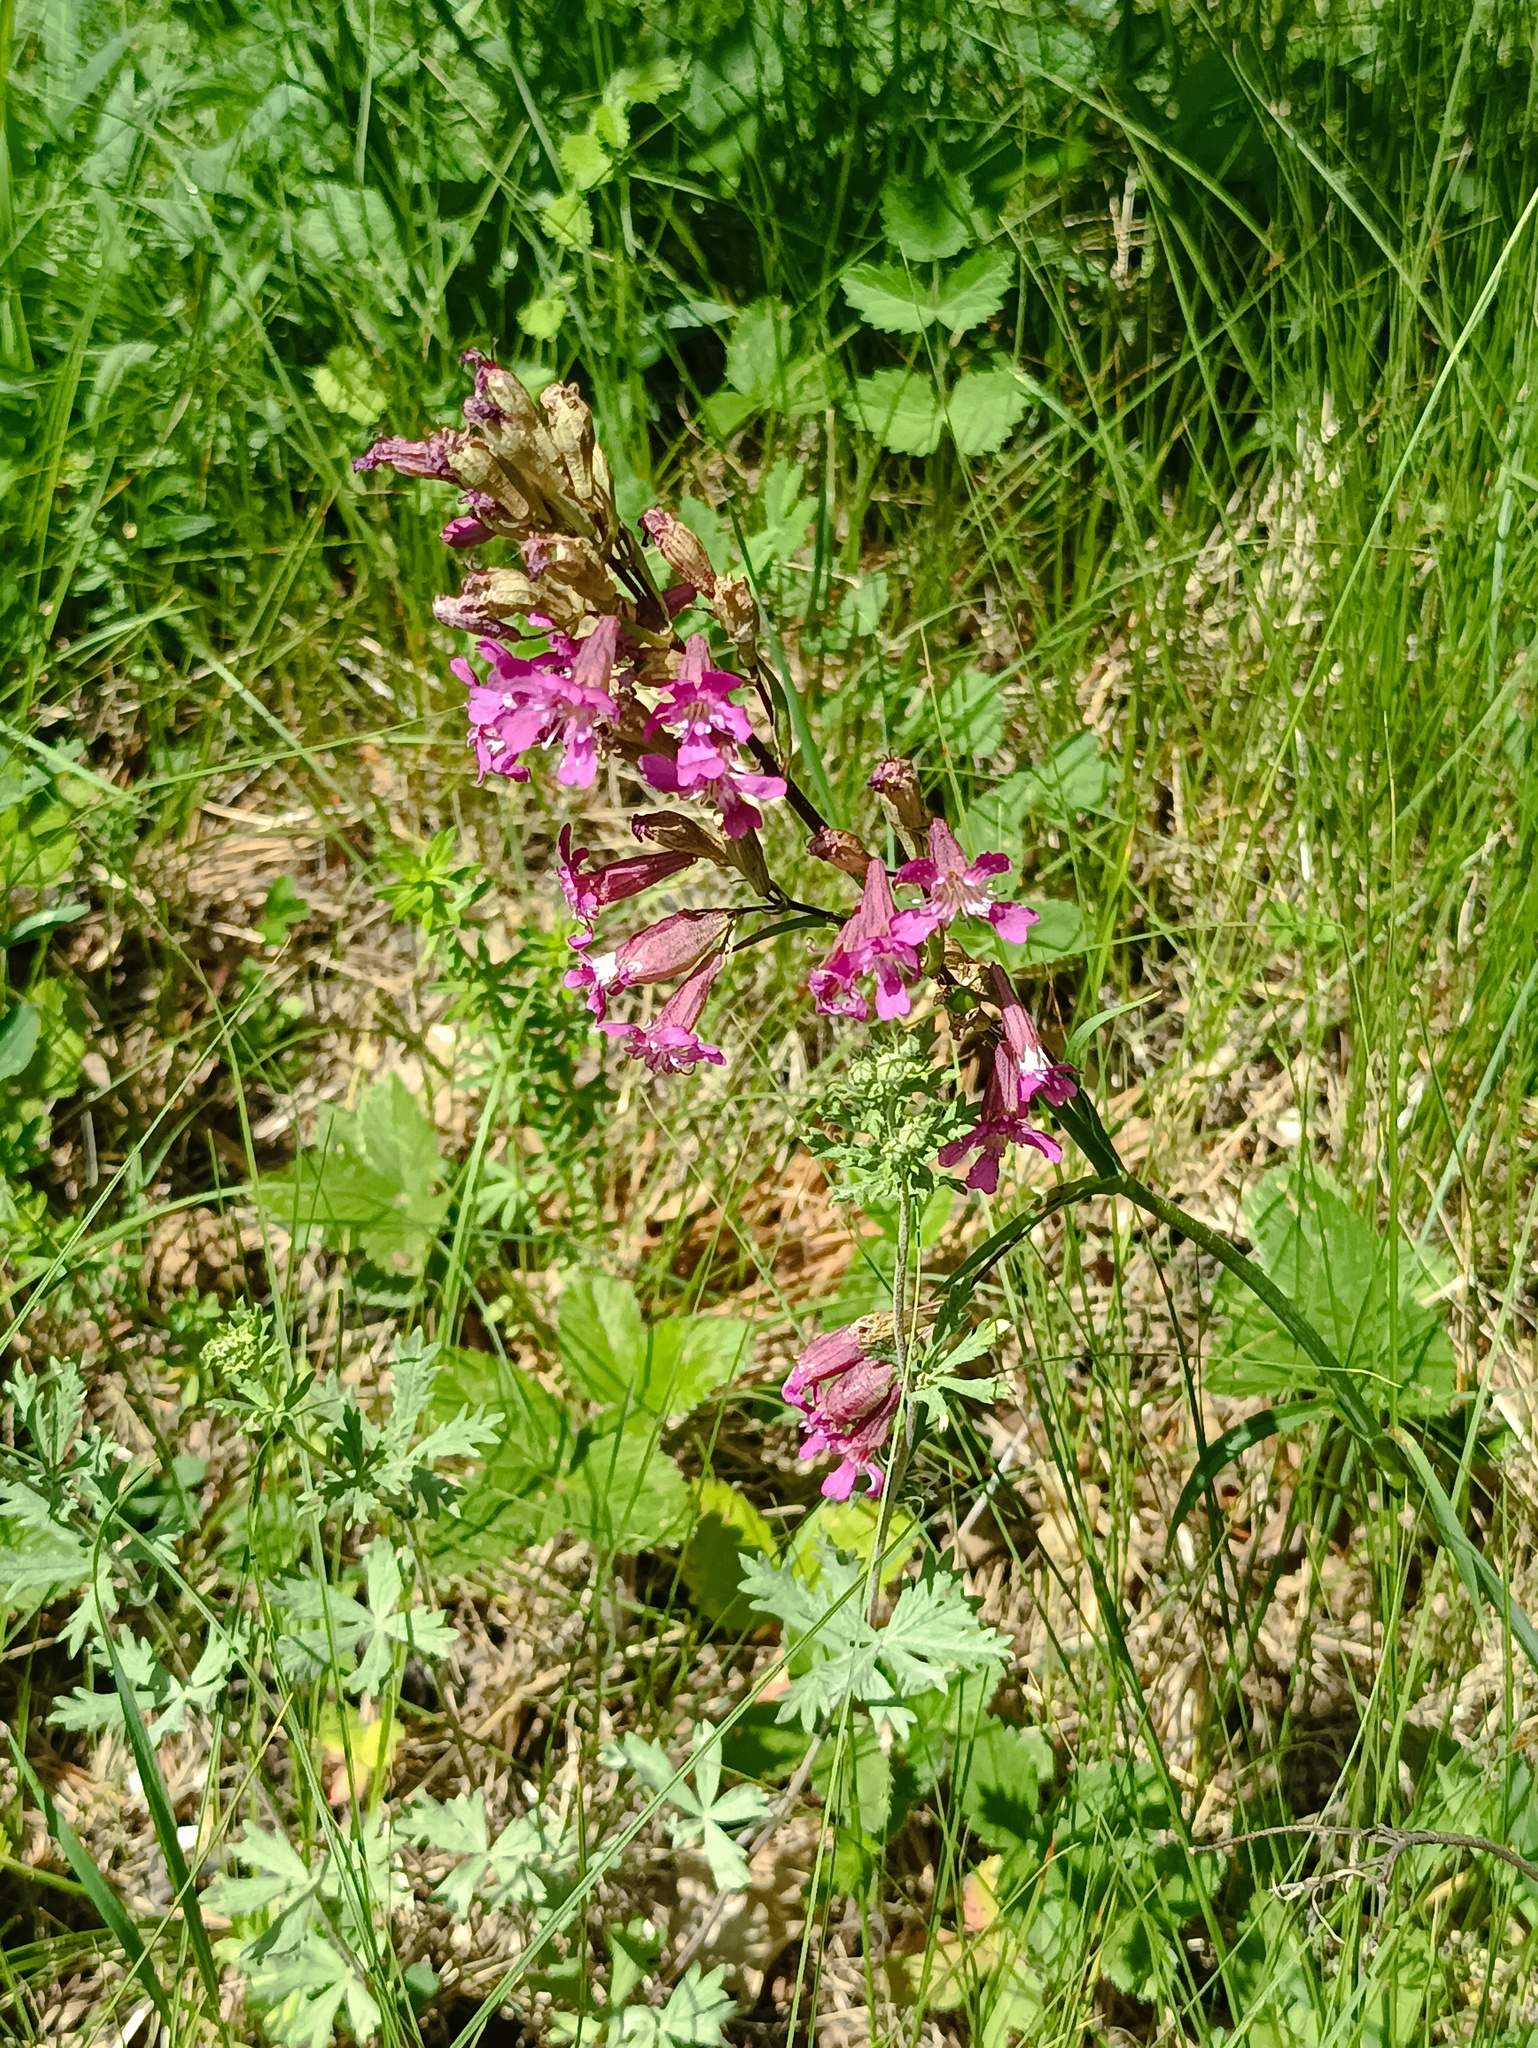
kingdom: Plantae
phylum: Tracheophyta
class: Magnoliopsida
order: Caryophyllales
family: Caryophyllaceae
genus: Viscaria
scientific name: Viscaria vulgaris
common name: Clammy campion
